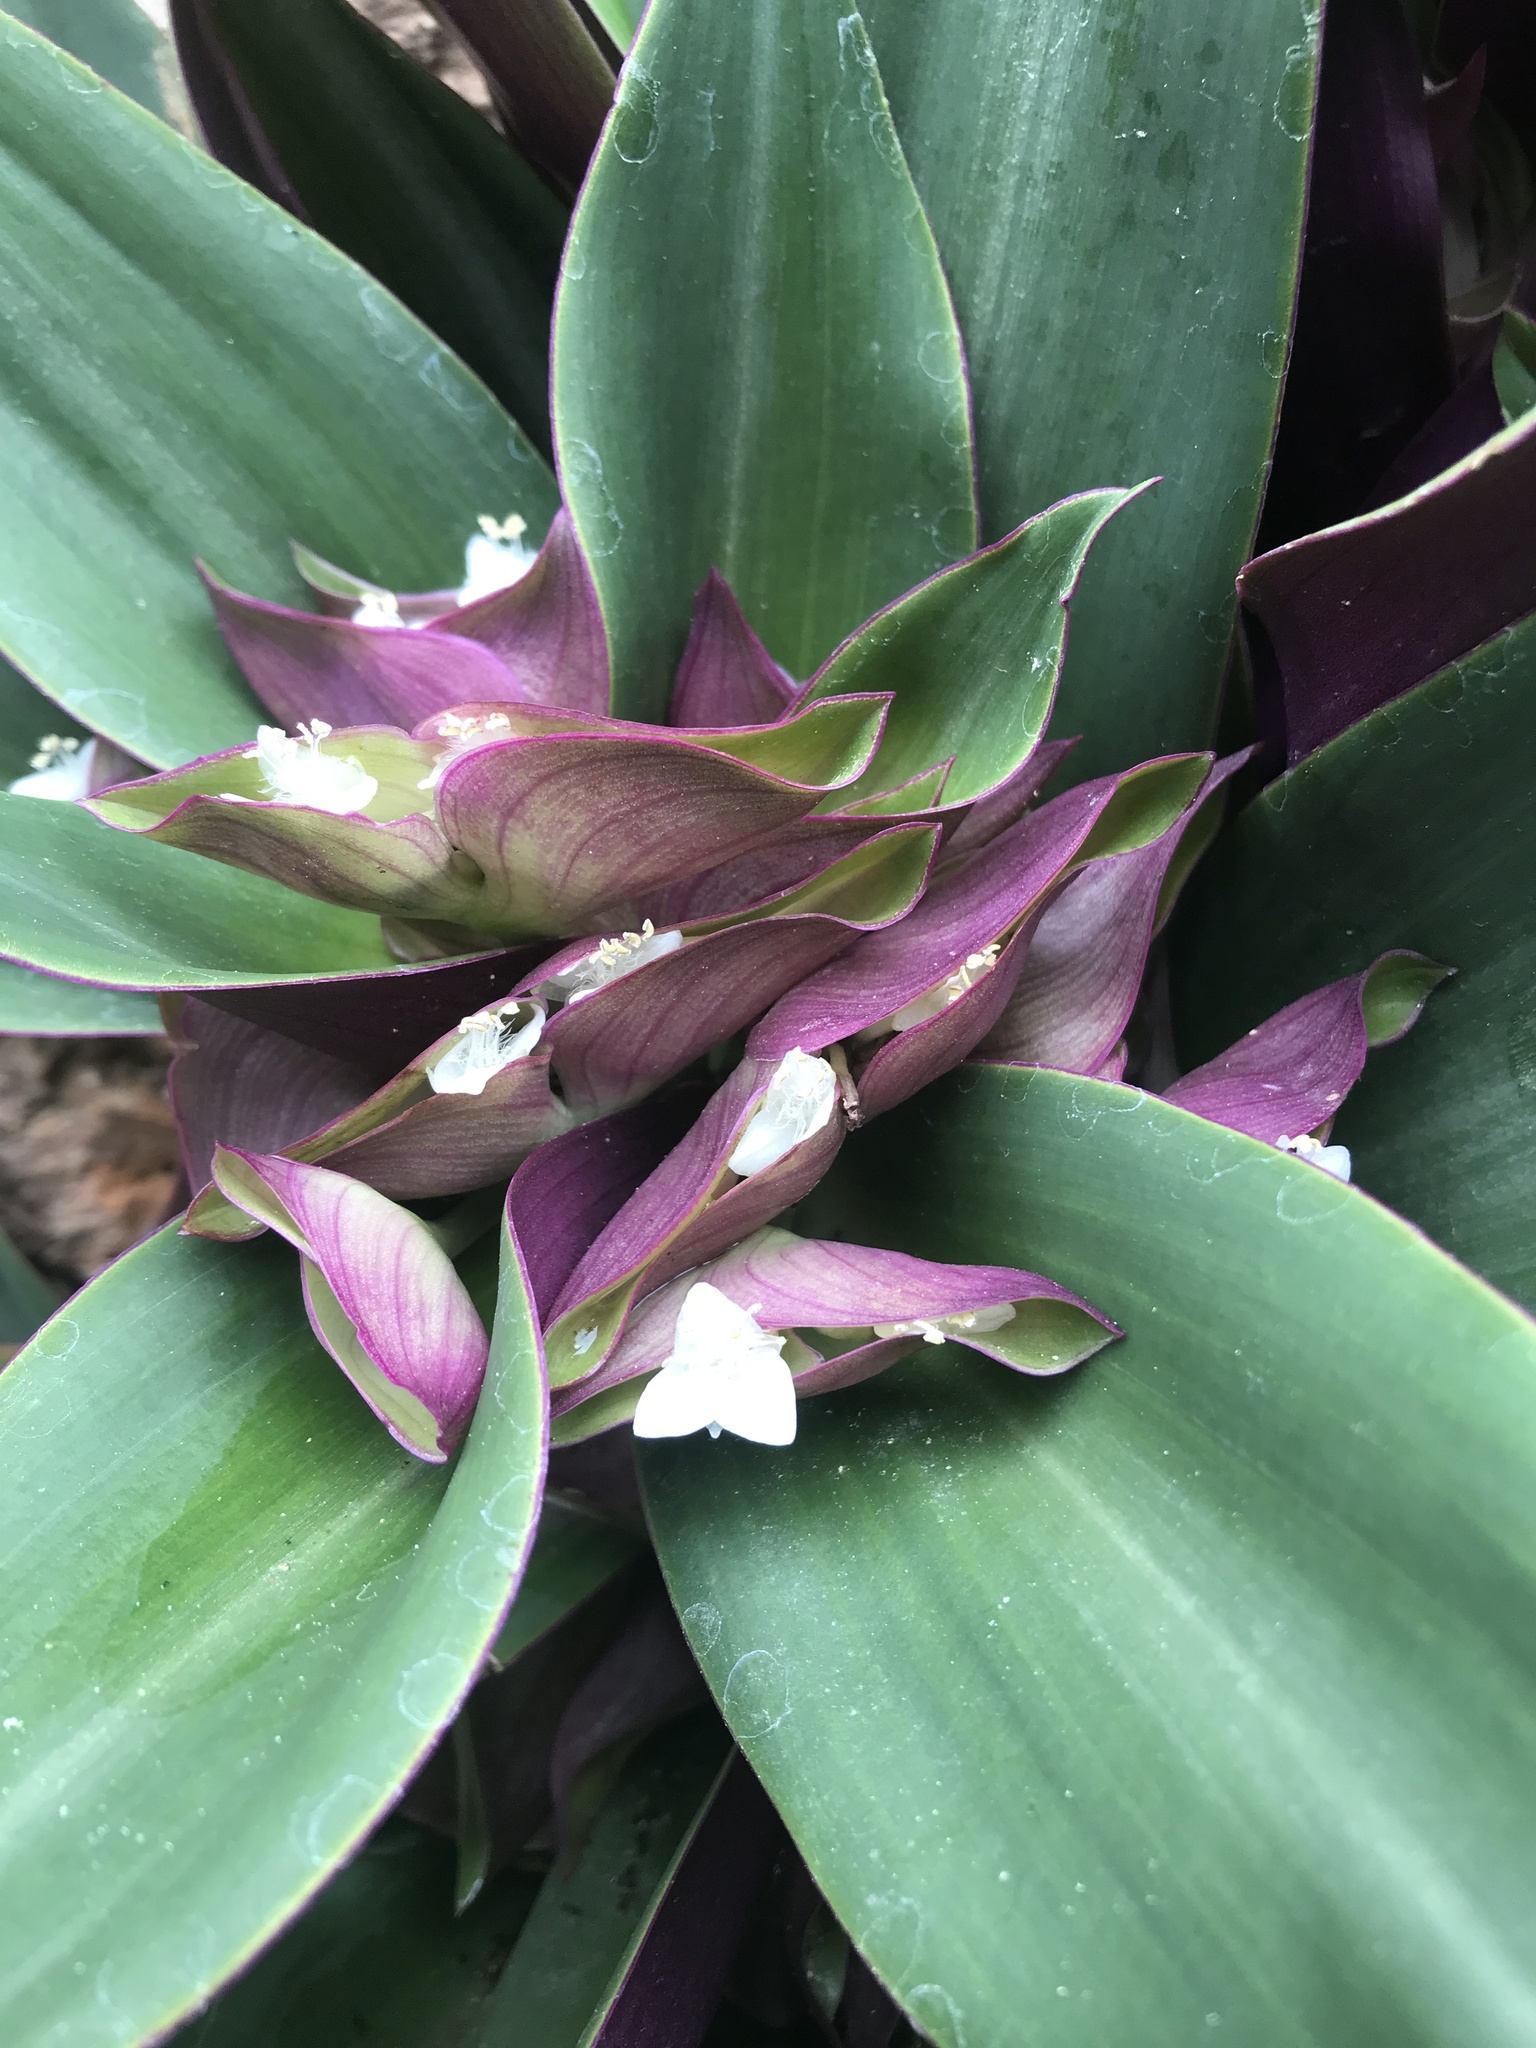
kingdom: Plantae
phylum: Tracheophyta
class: Liliopsida
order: Commelinales
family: Commelinaceae
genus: Tradescantia
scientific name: Tradescantia spathacea
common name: Boatlily
